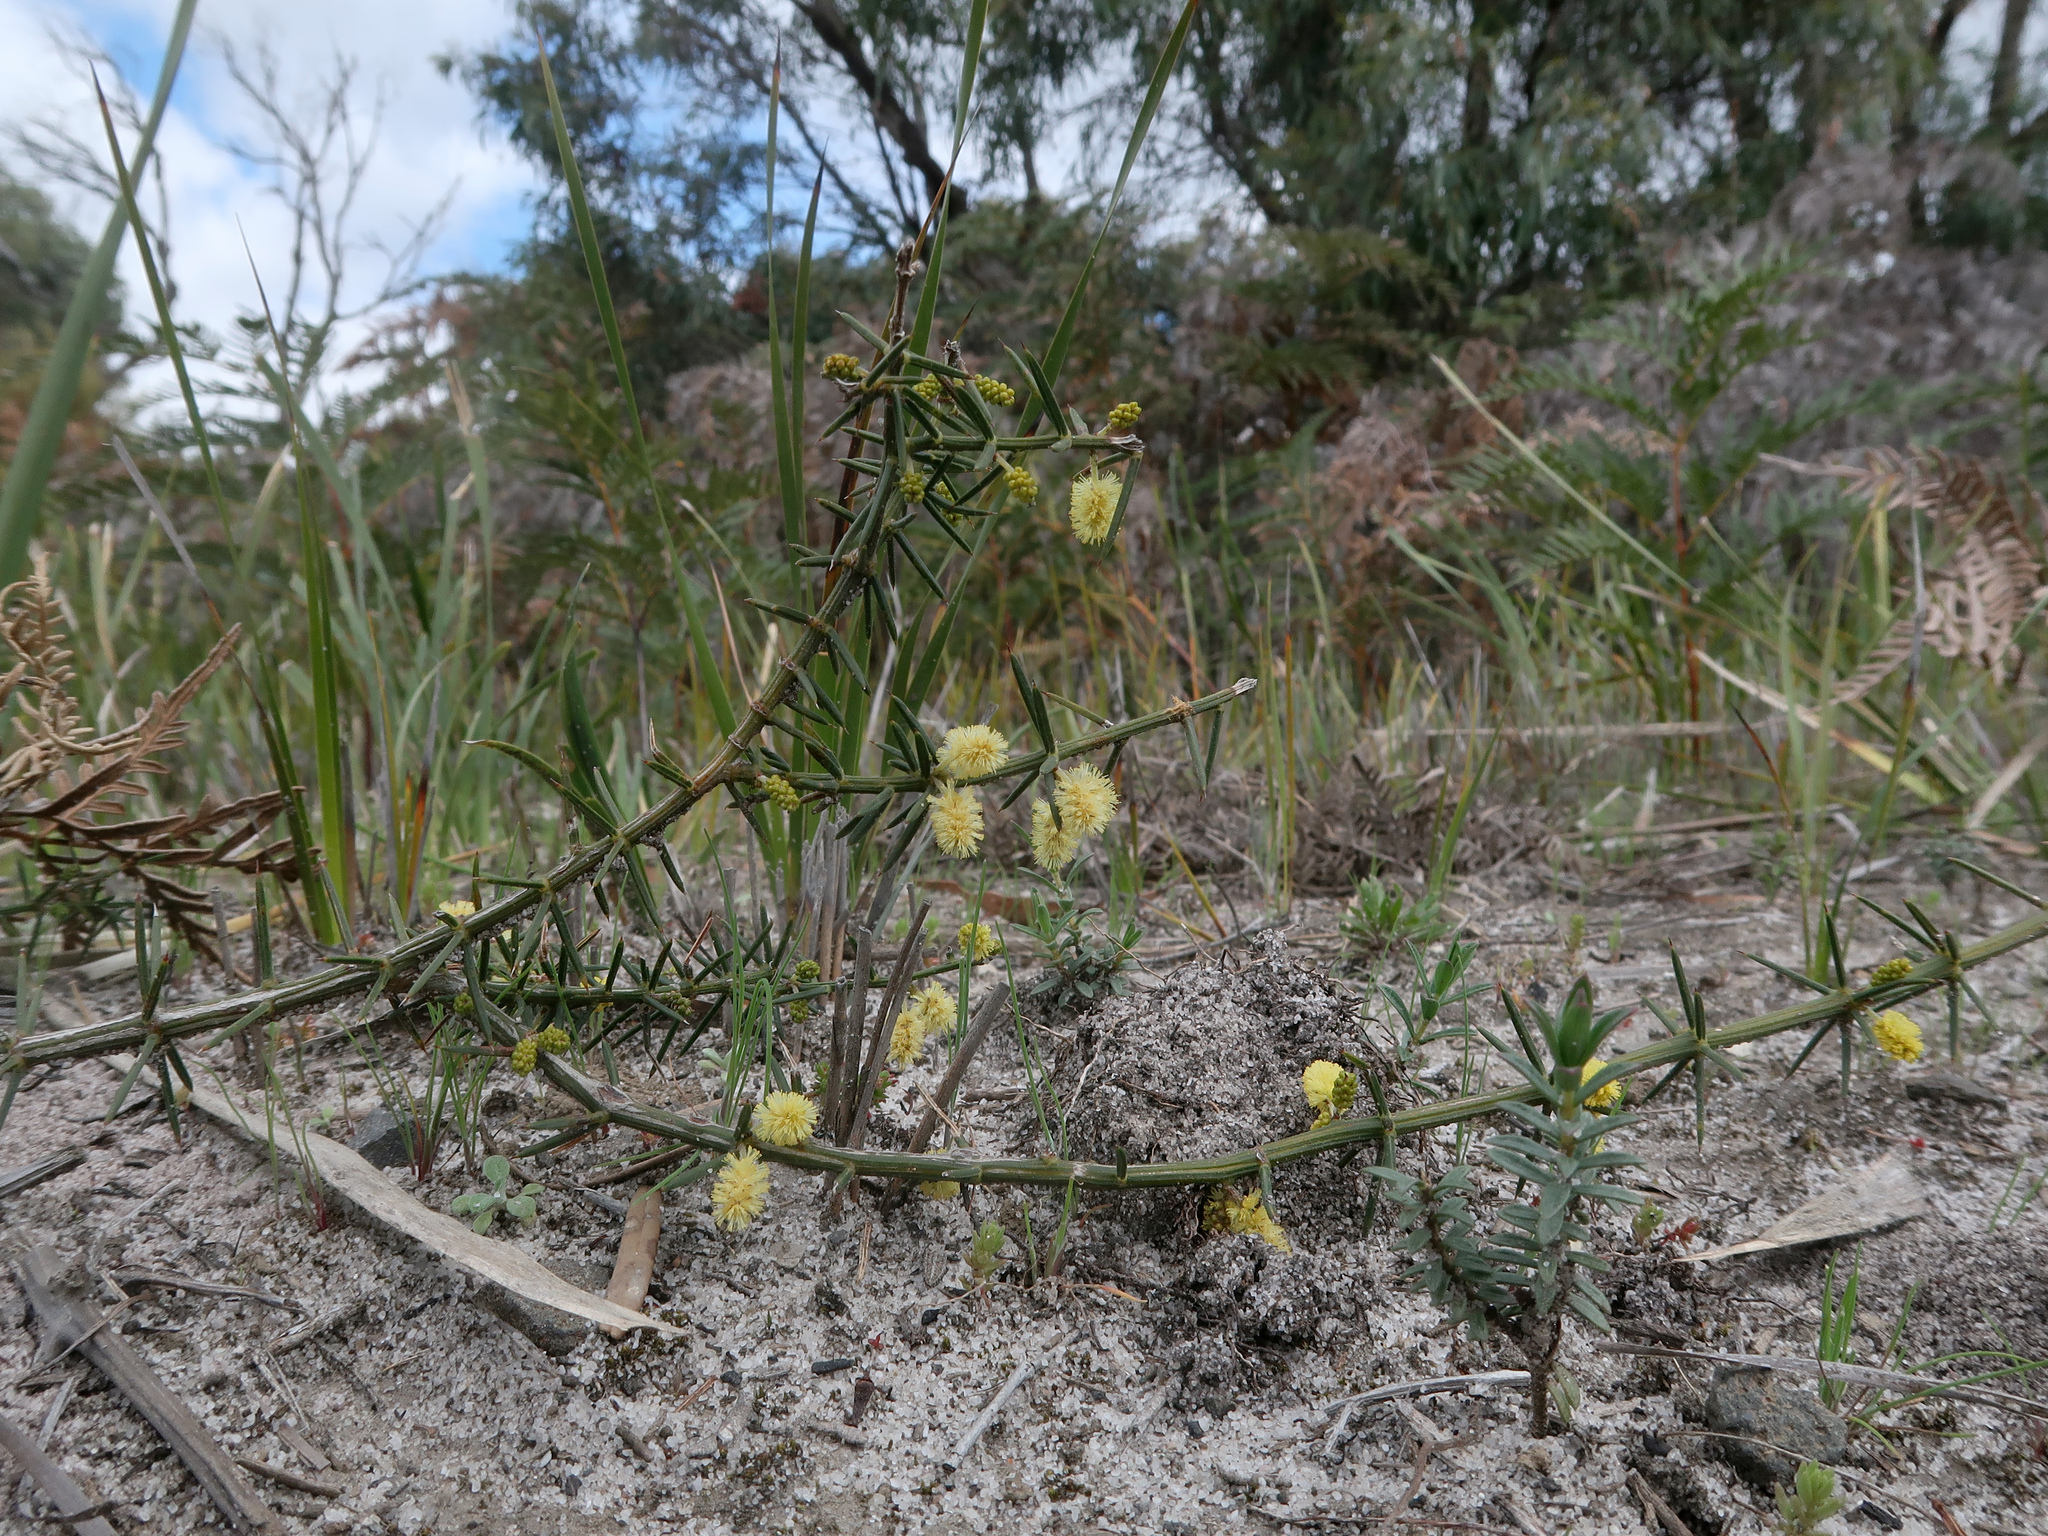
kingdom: Plantae
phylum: Tracheophyta
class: Magnoliopsida
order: Fabales
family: Fabaceae
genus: Acacia
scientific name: Acacia verticillata
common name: Prickly moses
